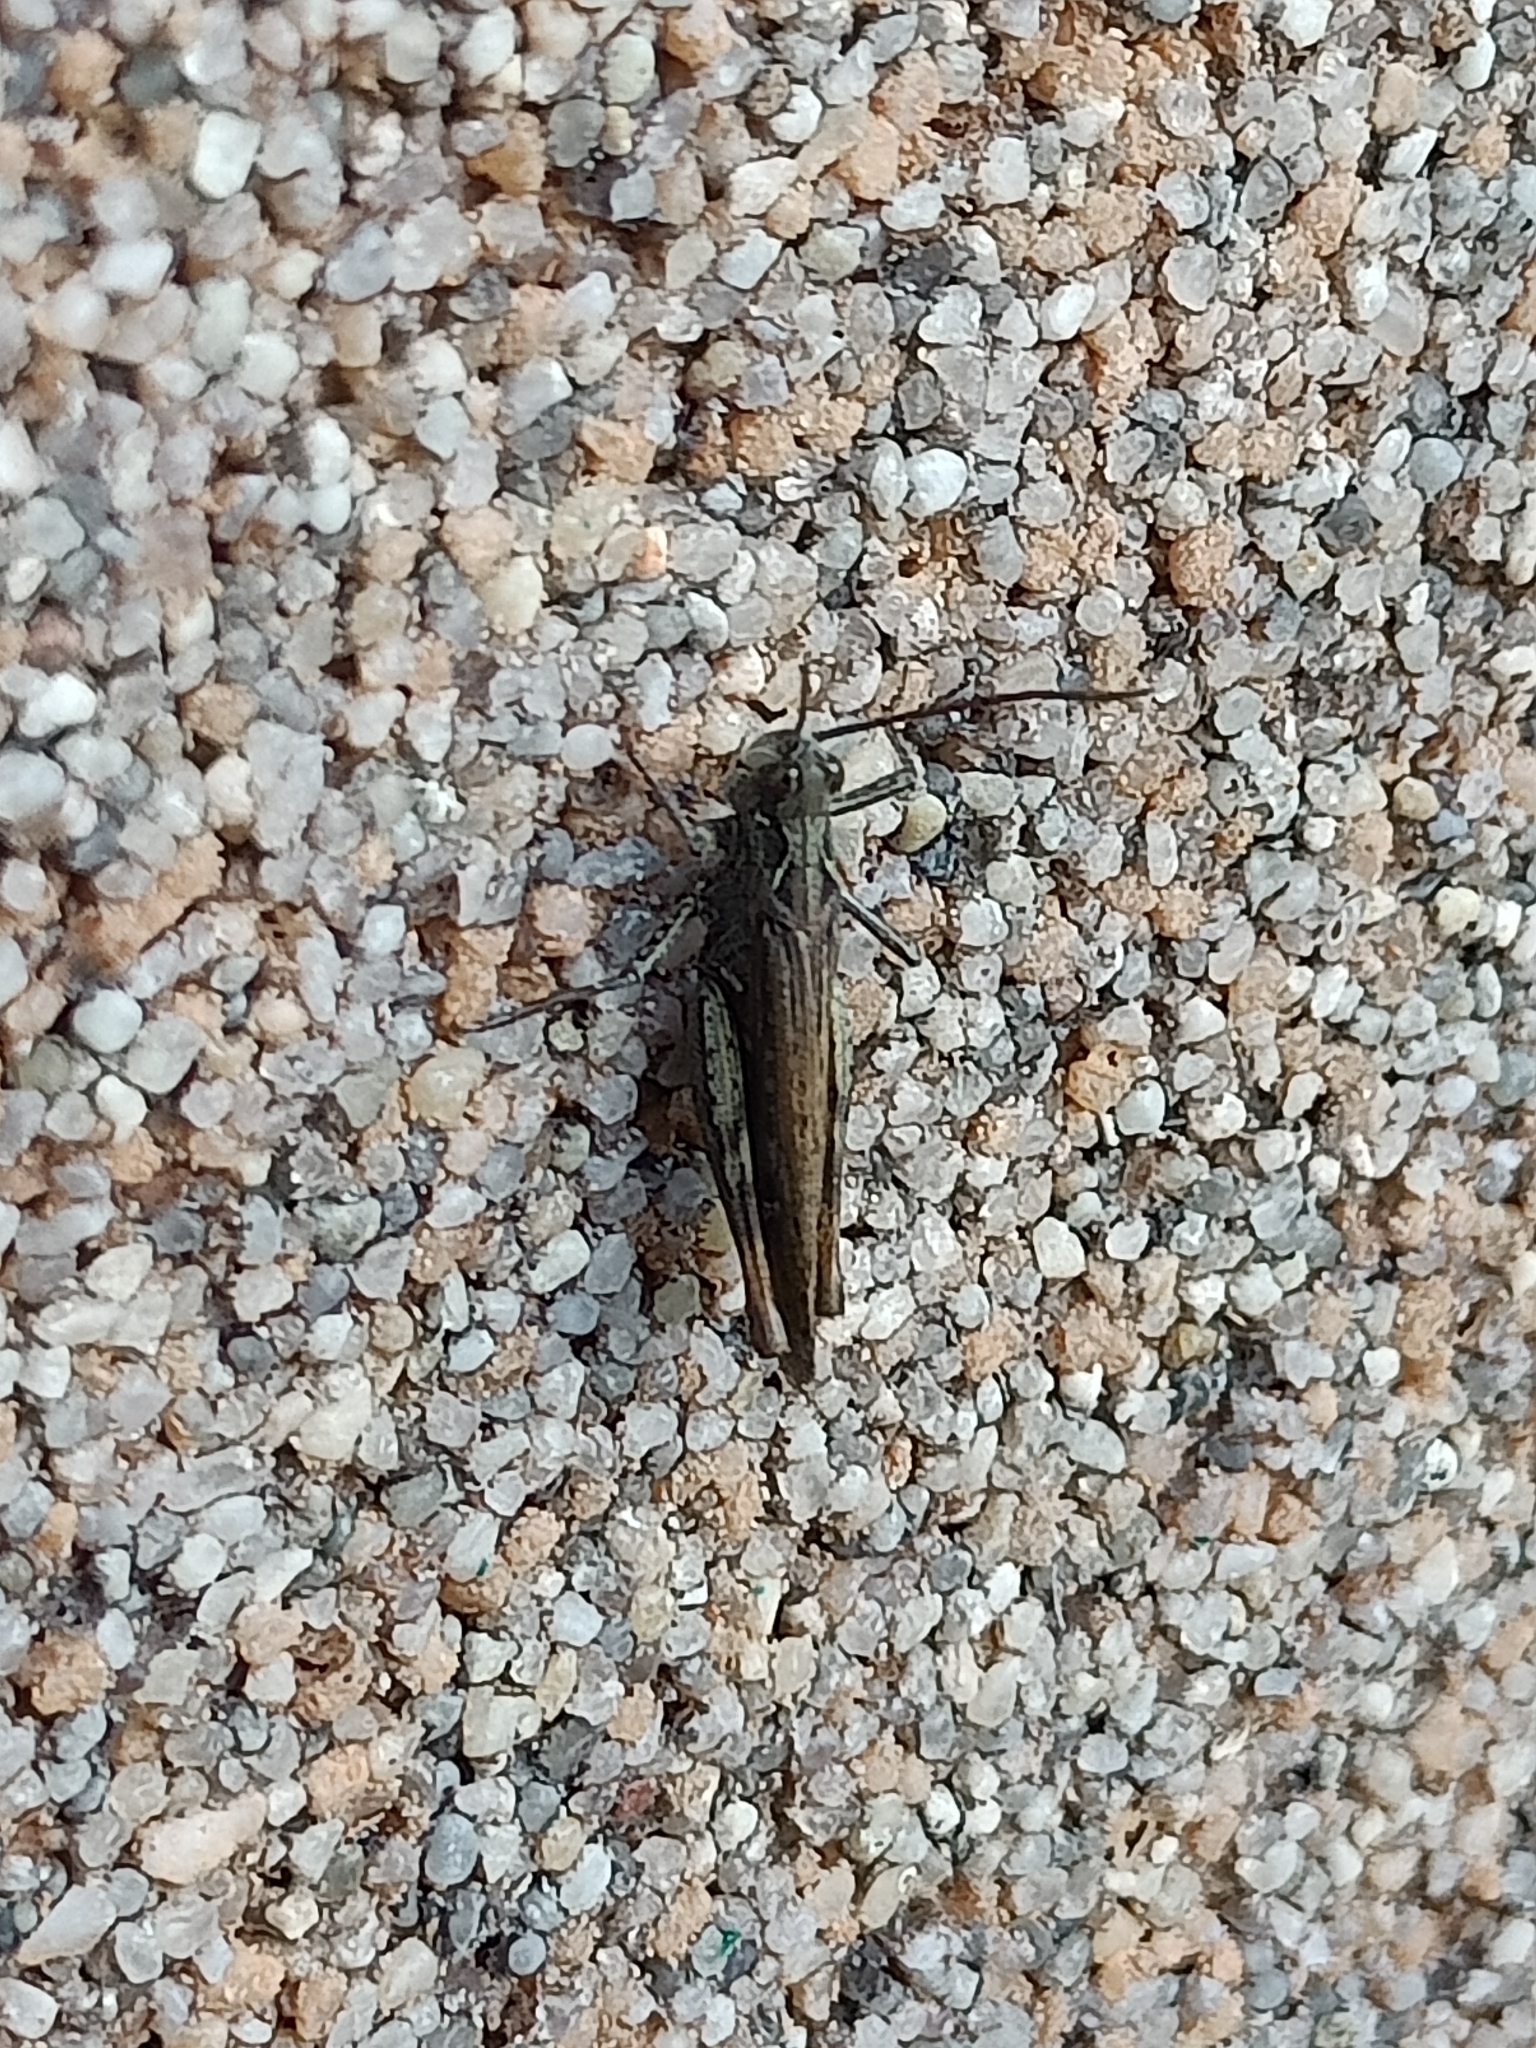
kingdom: Animalia
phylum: Arthropoda
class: Insecta
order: Orthoptera
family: Acrididae
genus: Chorthippus
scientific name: Chorthippus brunneus
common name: Field grasshopper
